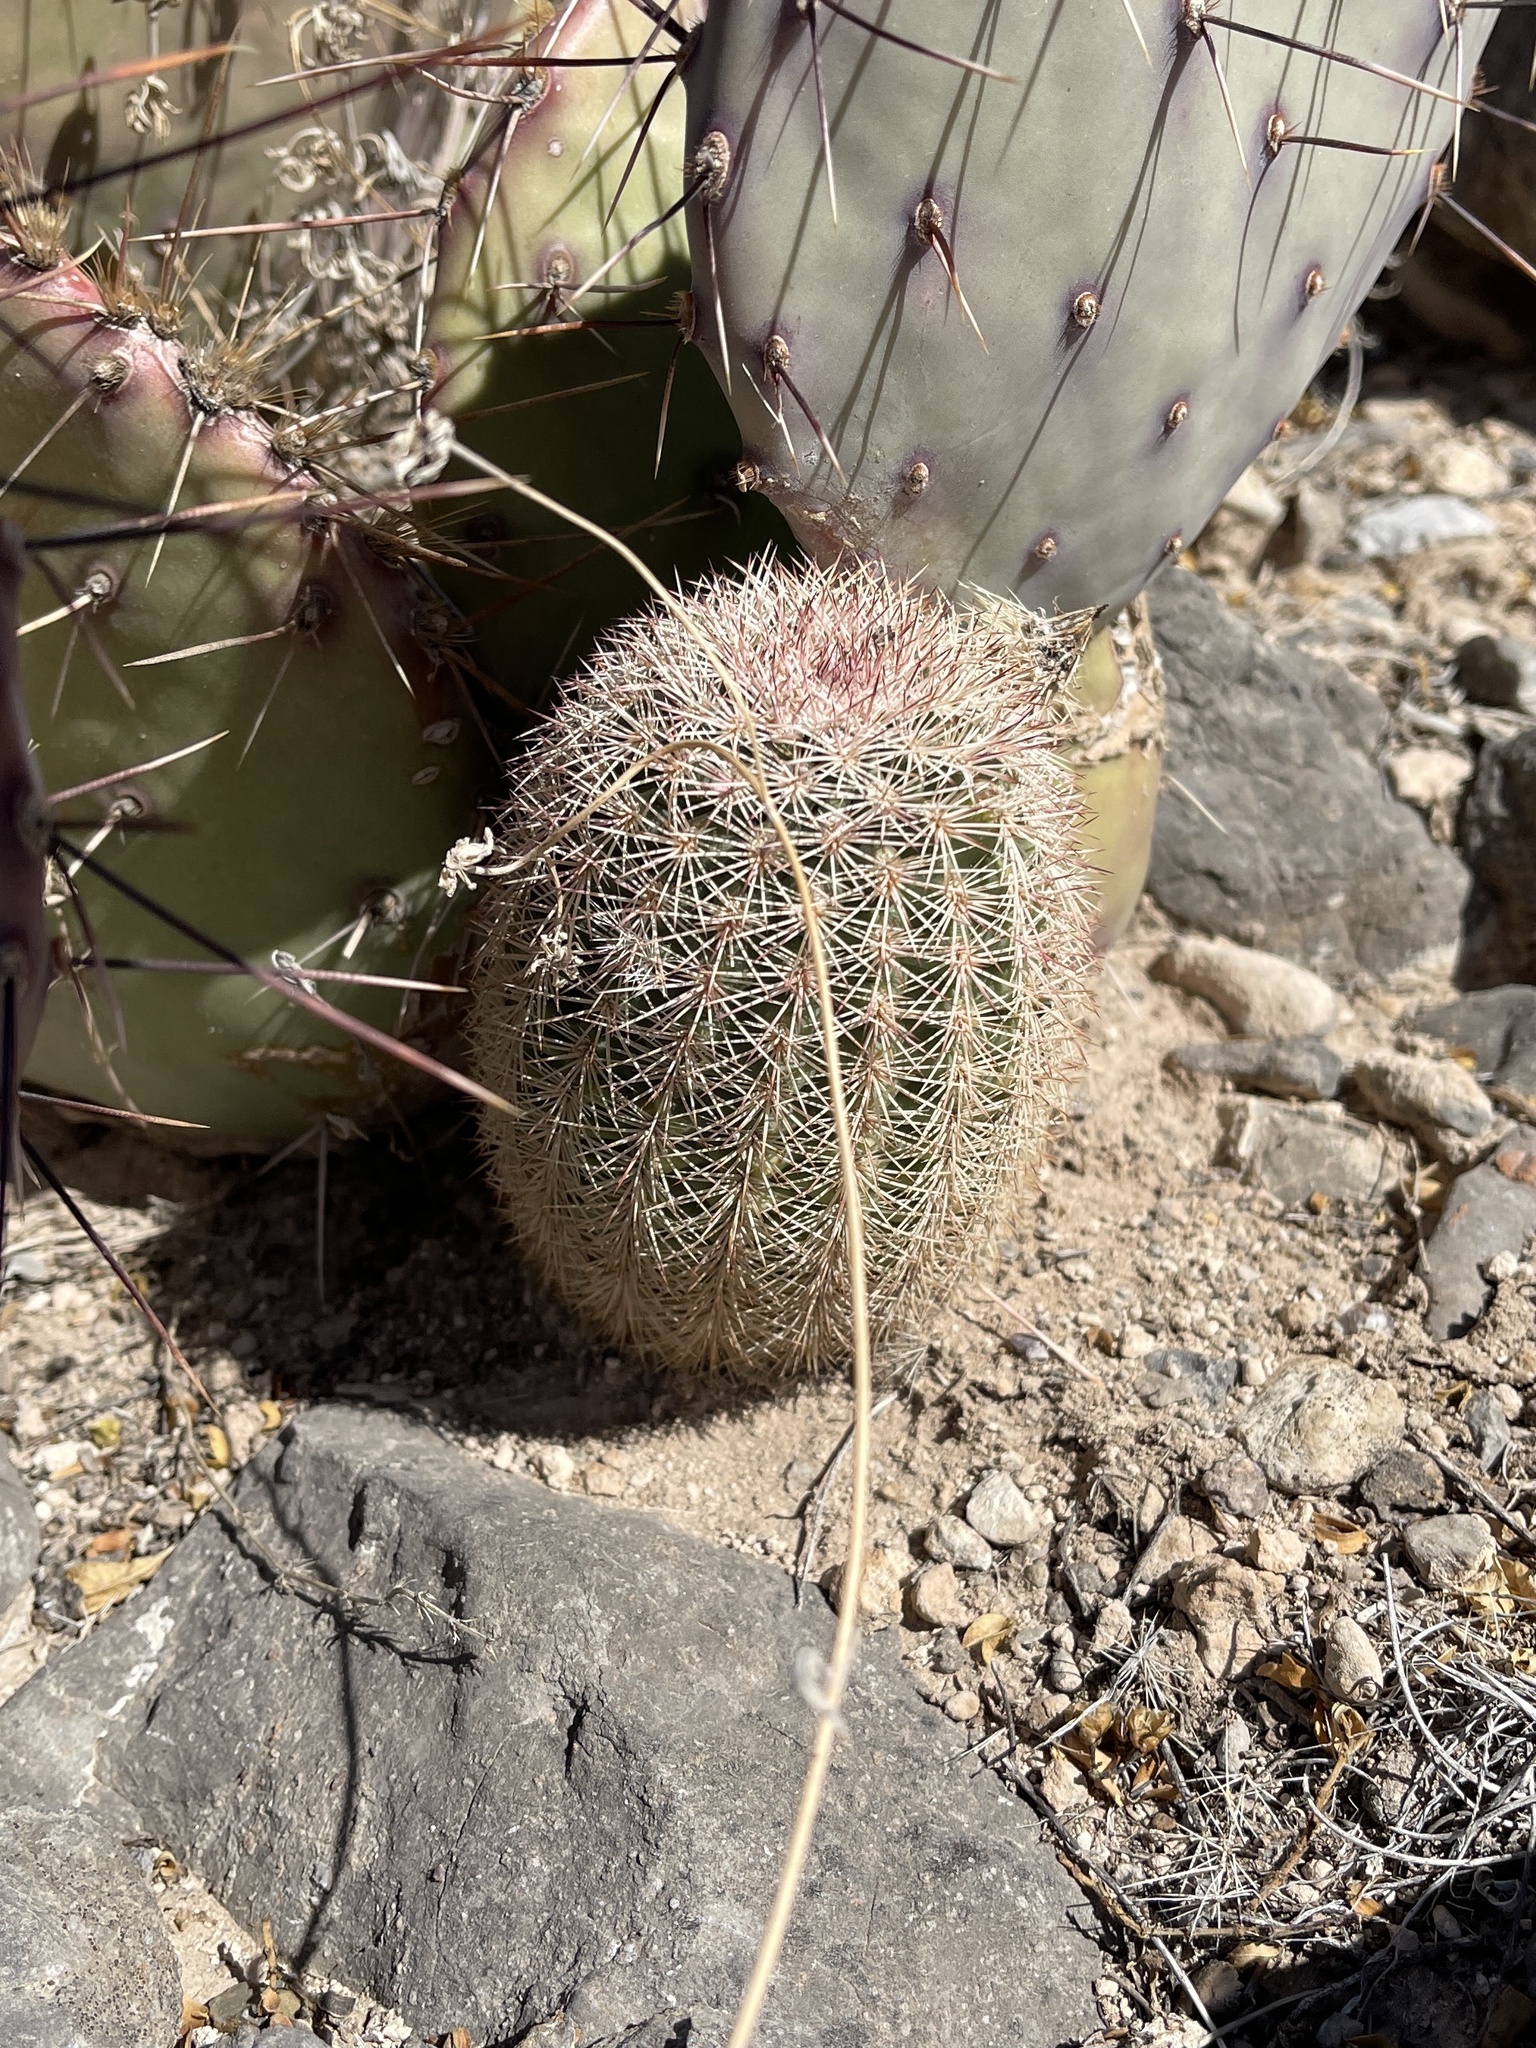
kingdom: Plantae
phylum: Tracheophyta
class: Magnoliopsida
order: Caryophyllales
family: Cactaceae
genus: Echinocereus
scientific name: Echinocereus dasyacanthus
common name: Spiny hedgehog cactus
